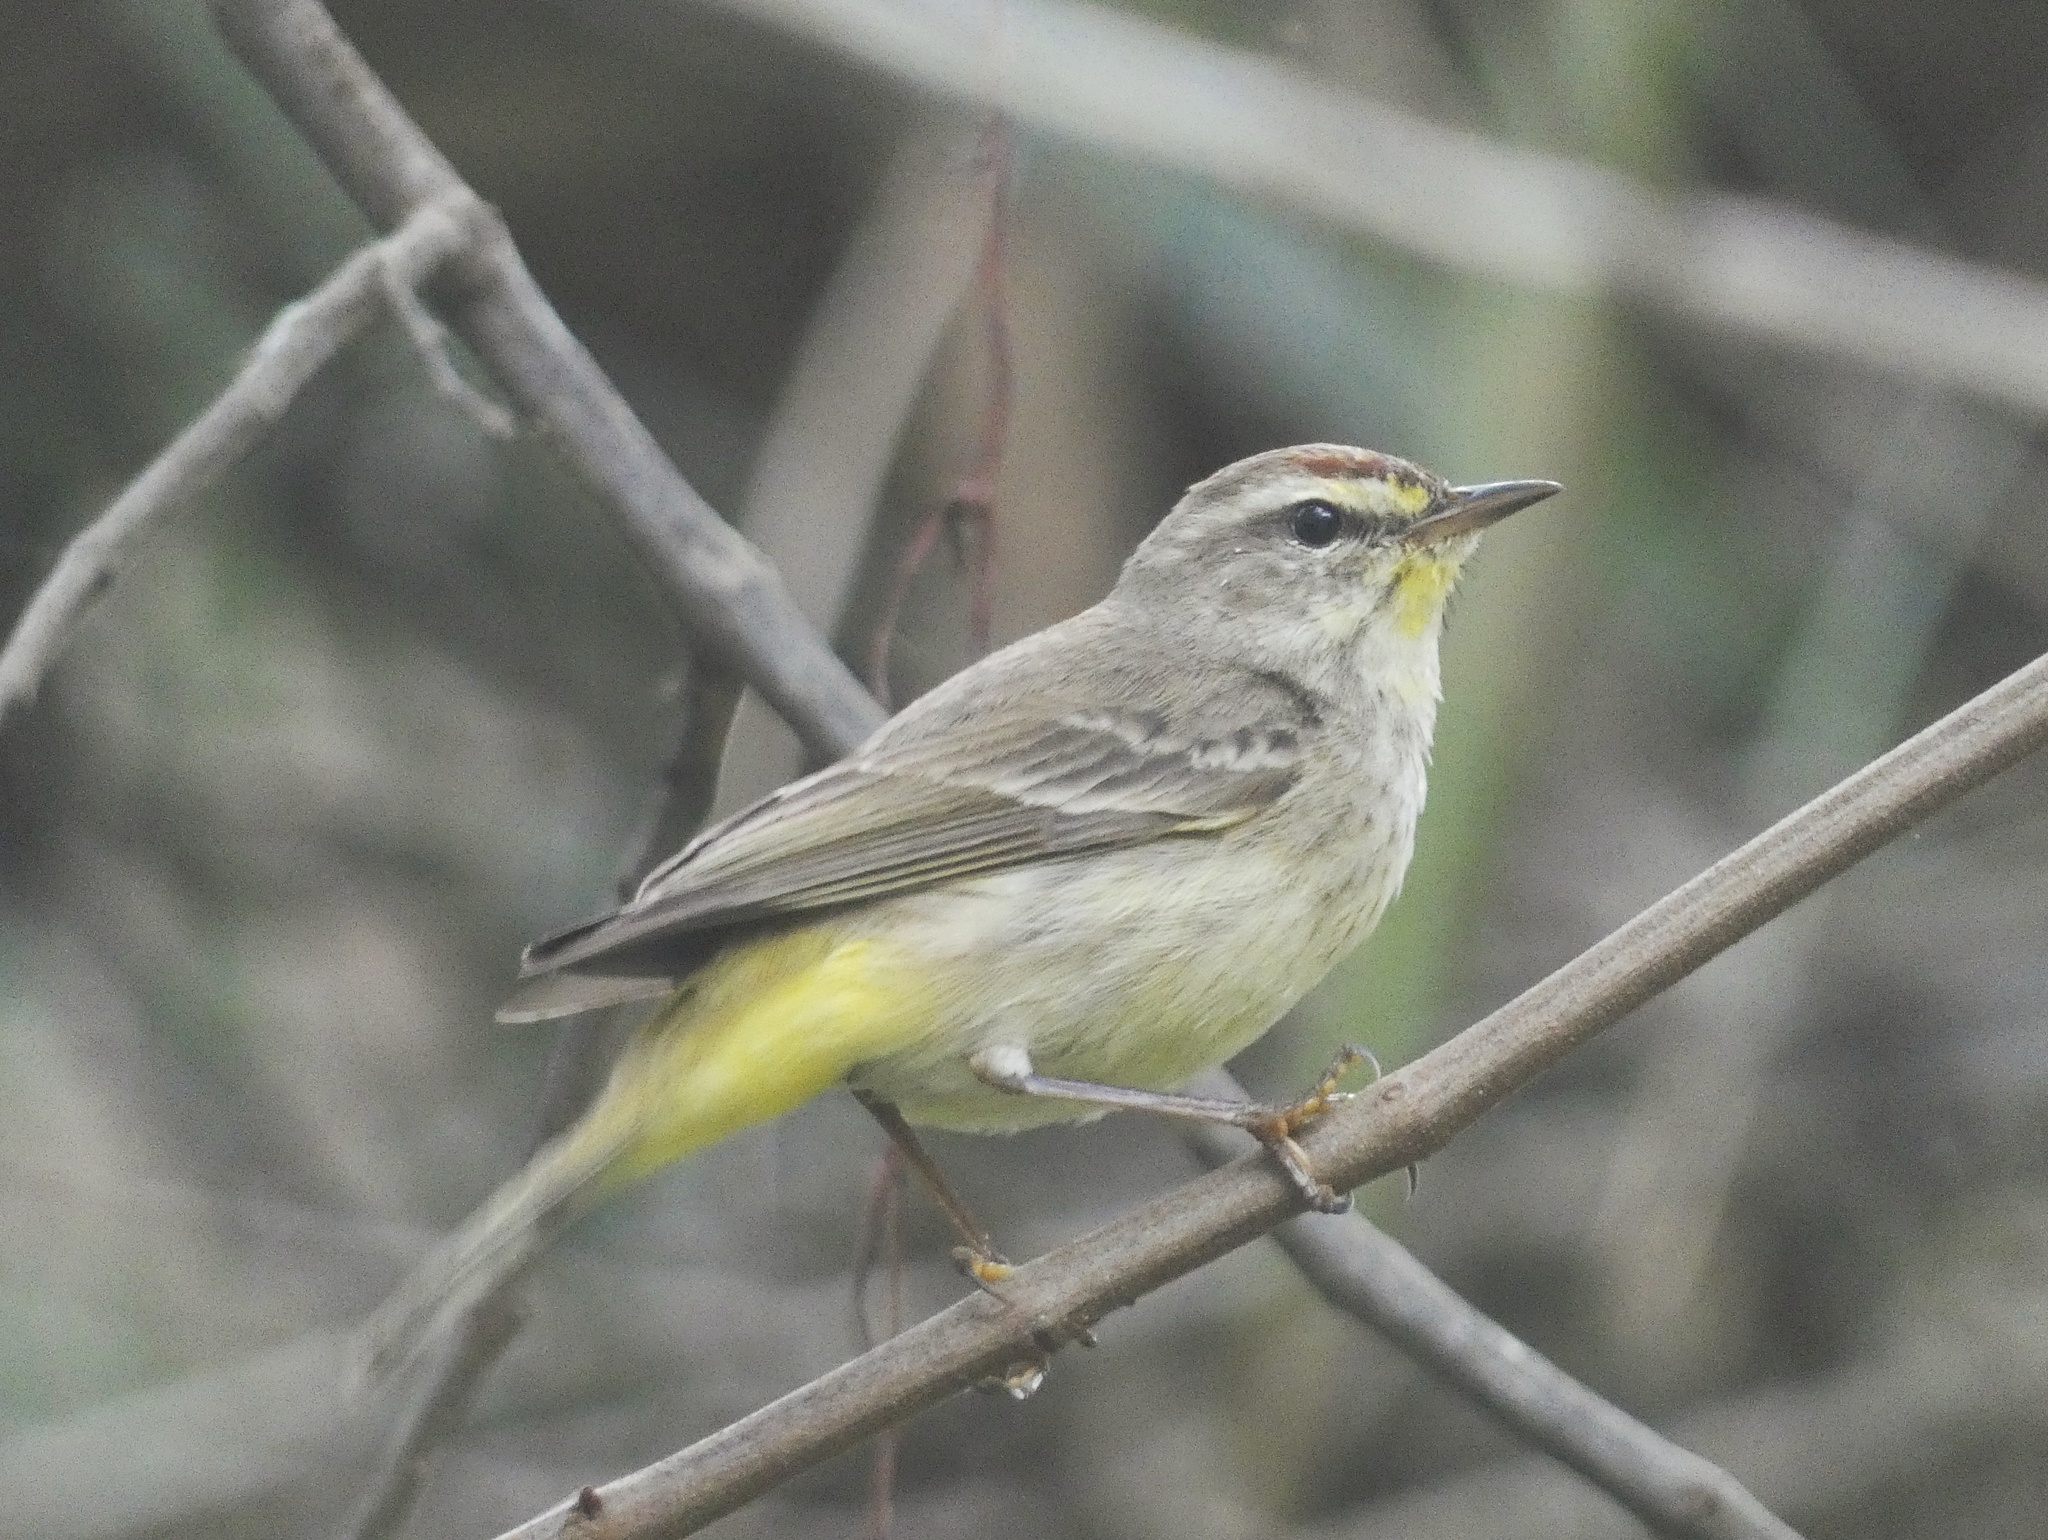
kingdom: Animalia
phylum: Chordata
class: Aves
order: Passeriformes
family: Parulidae
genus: Setophaga
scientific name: Setophaga palmarum
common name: Palm warbler
